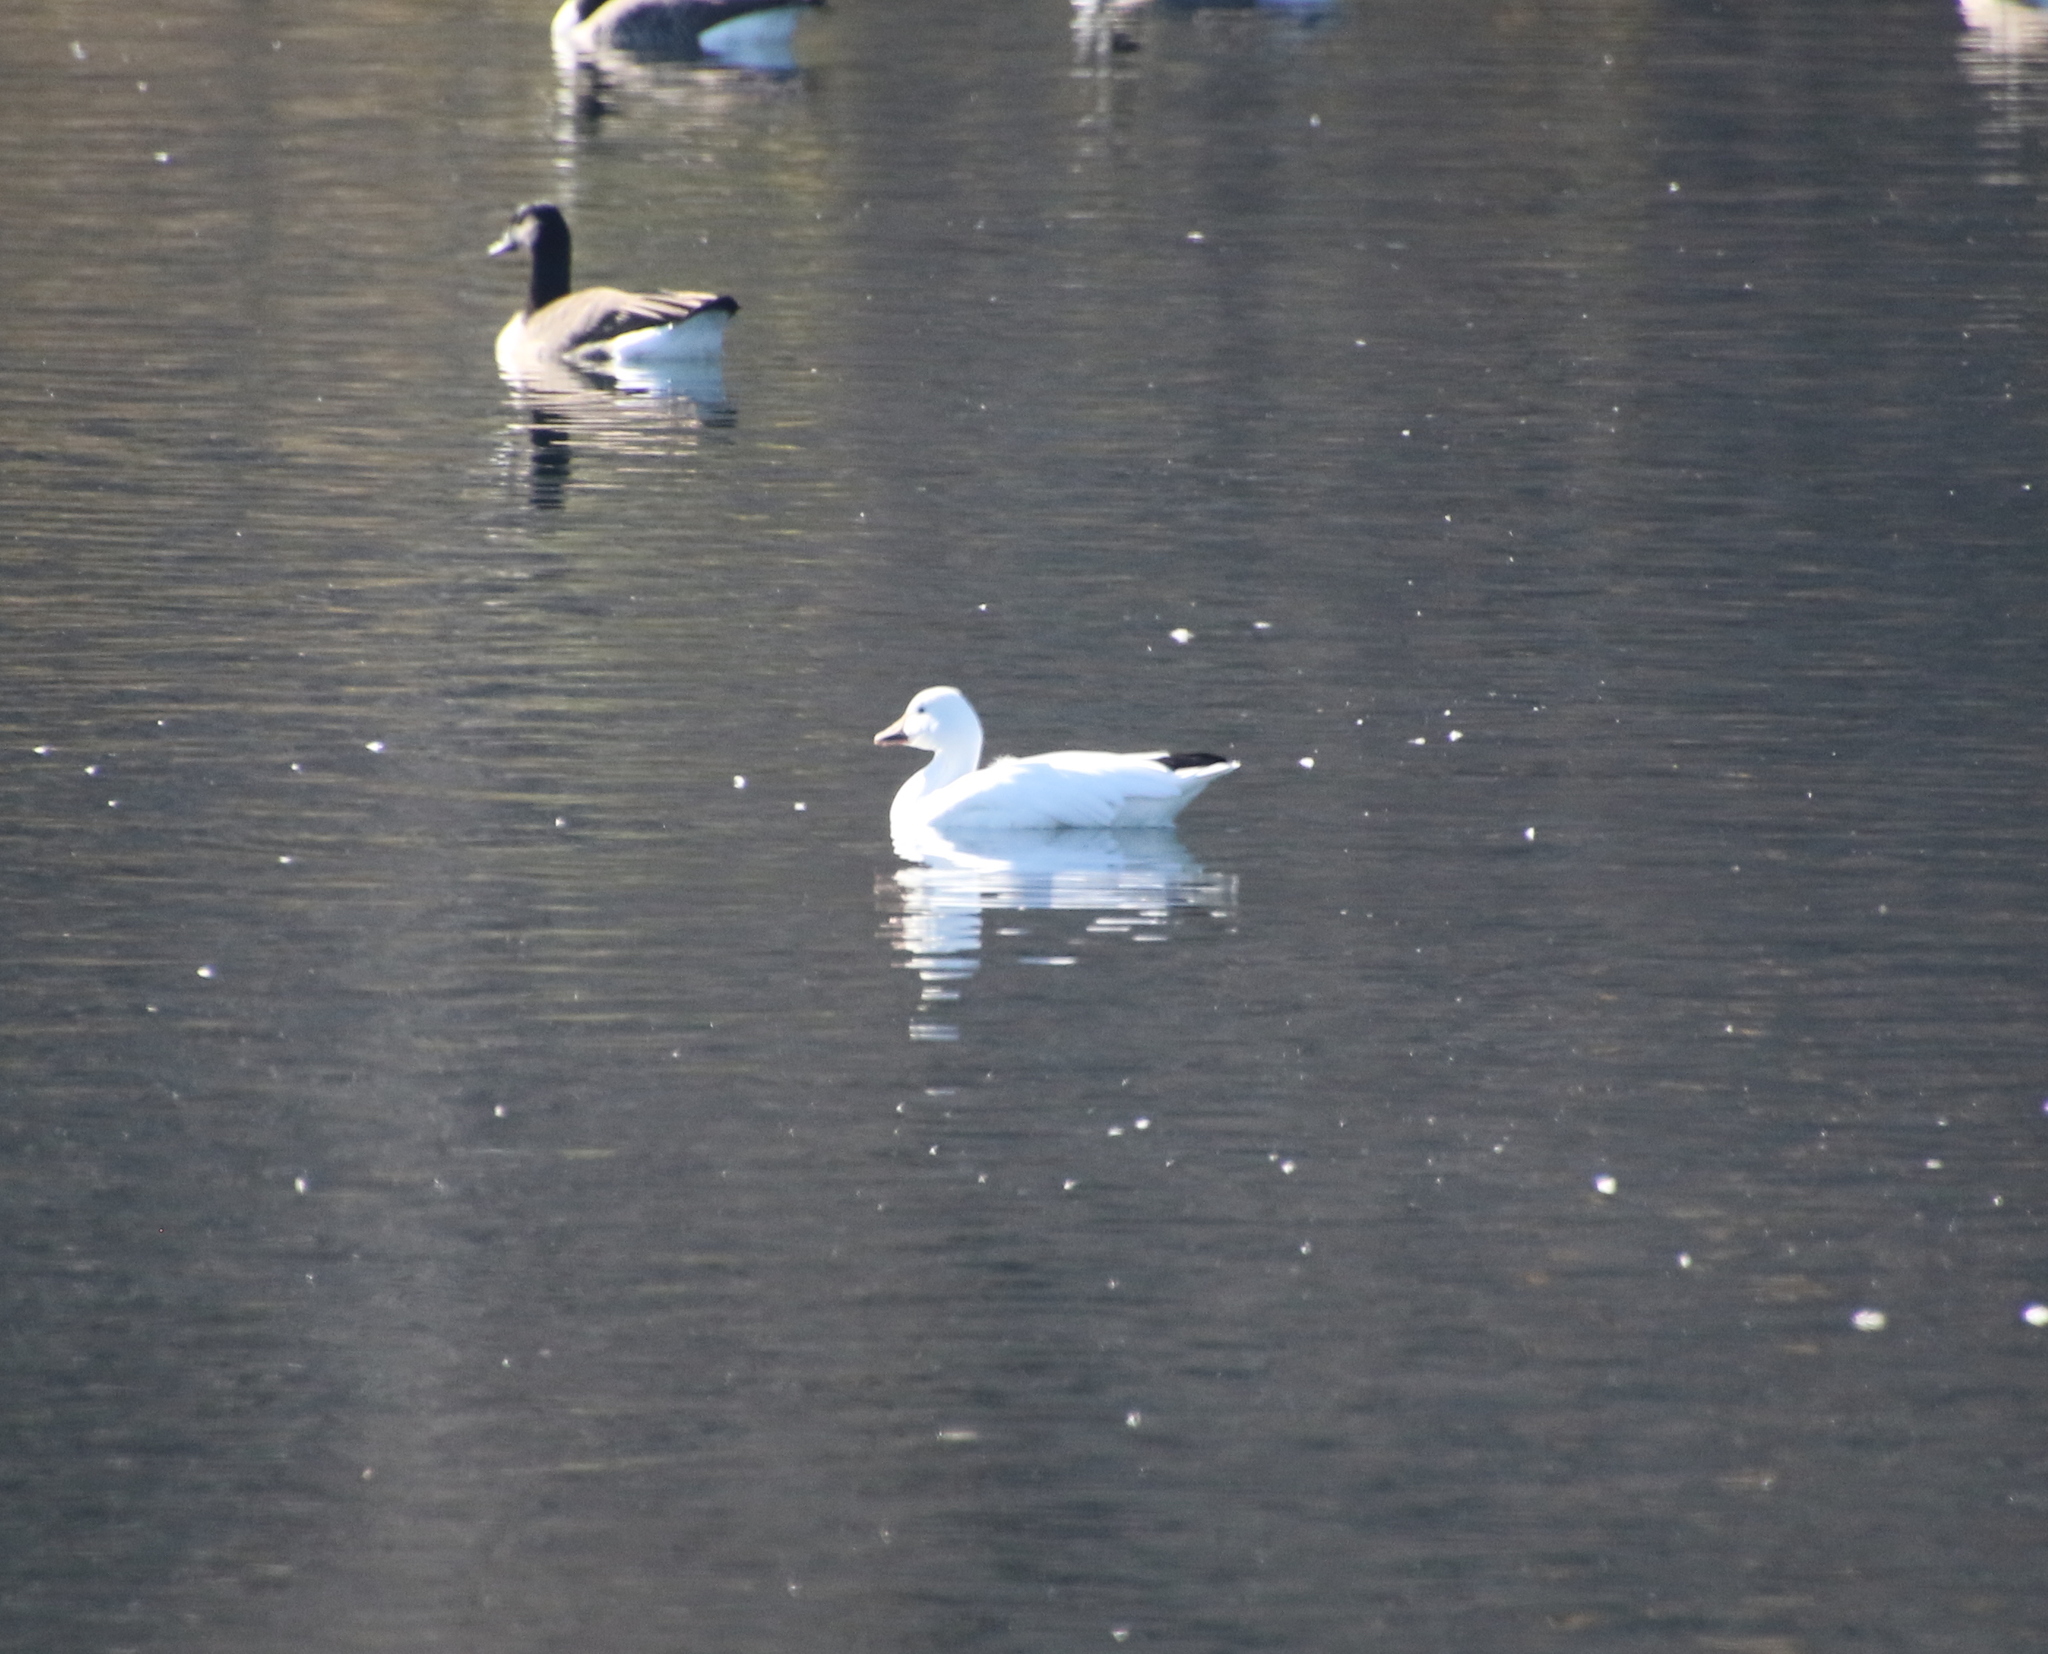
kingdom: Animalia
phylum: Chordata
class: Aves
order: Anseriformes
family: Anatidae
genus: Anser
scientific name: Anser caerulescens
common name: Snow goose
